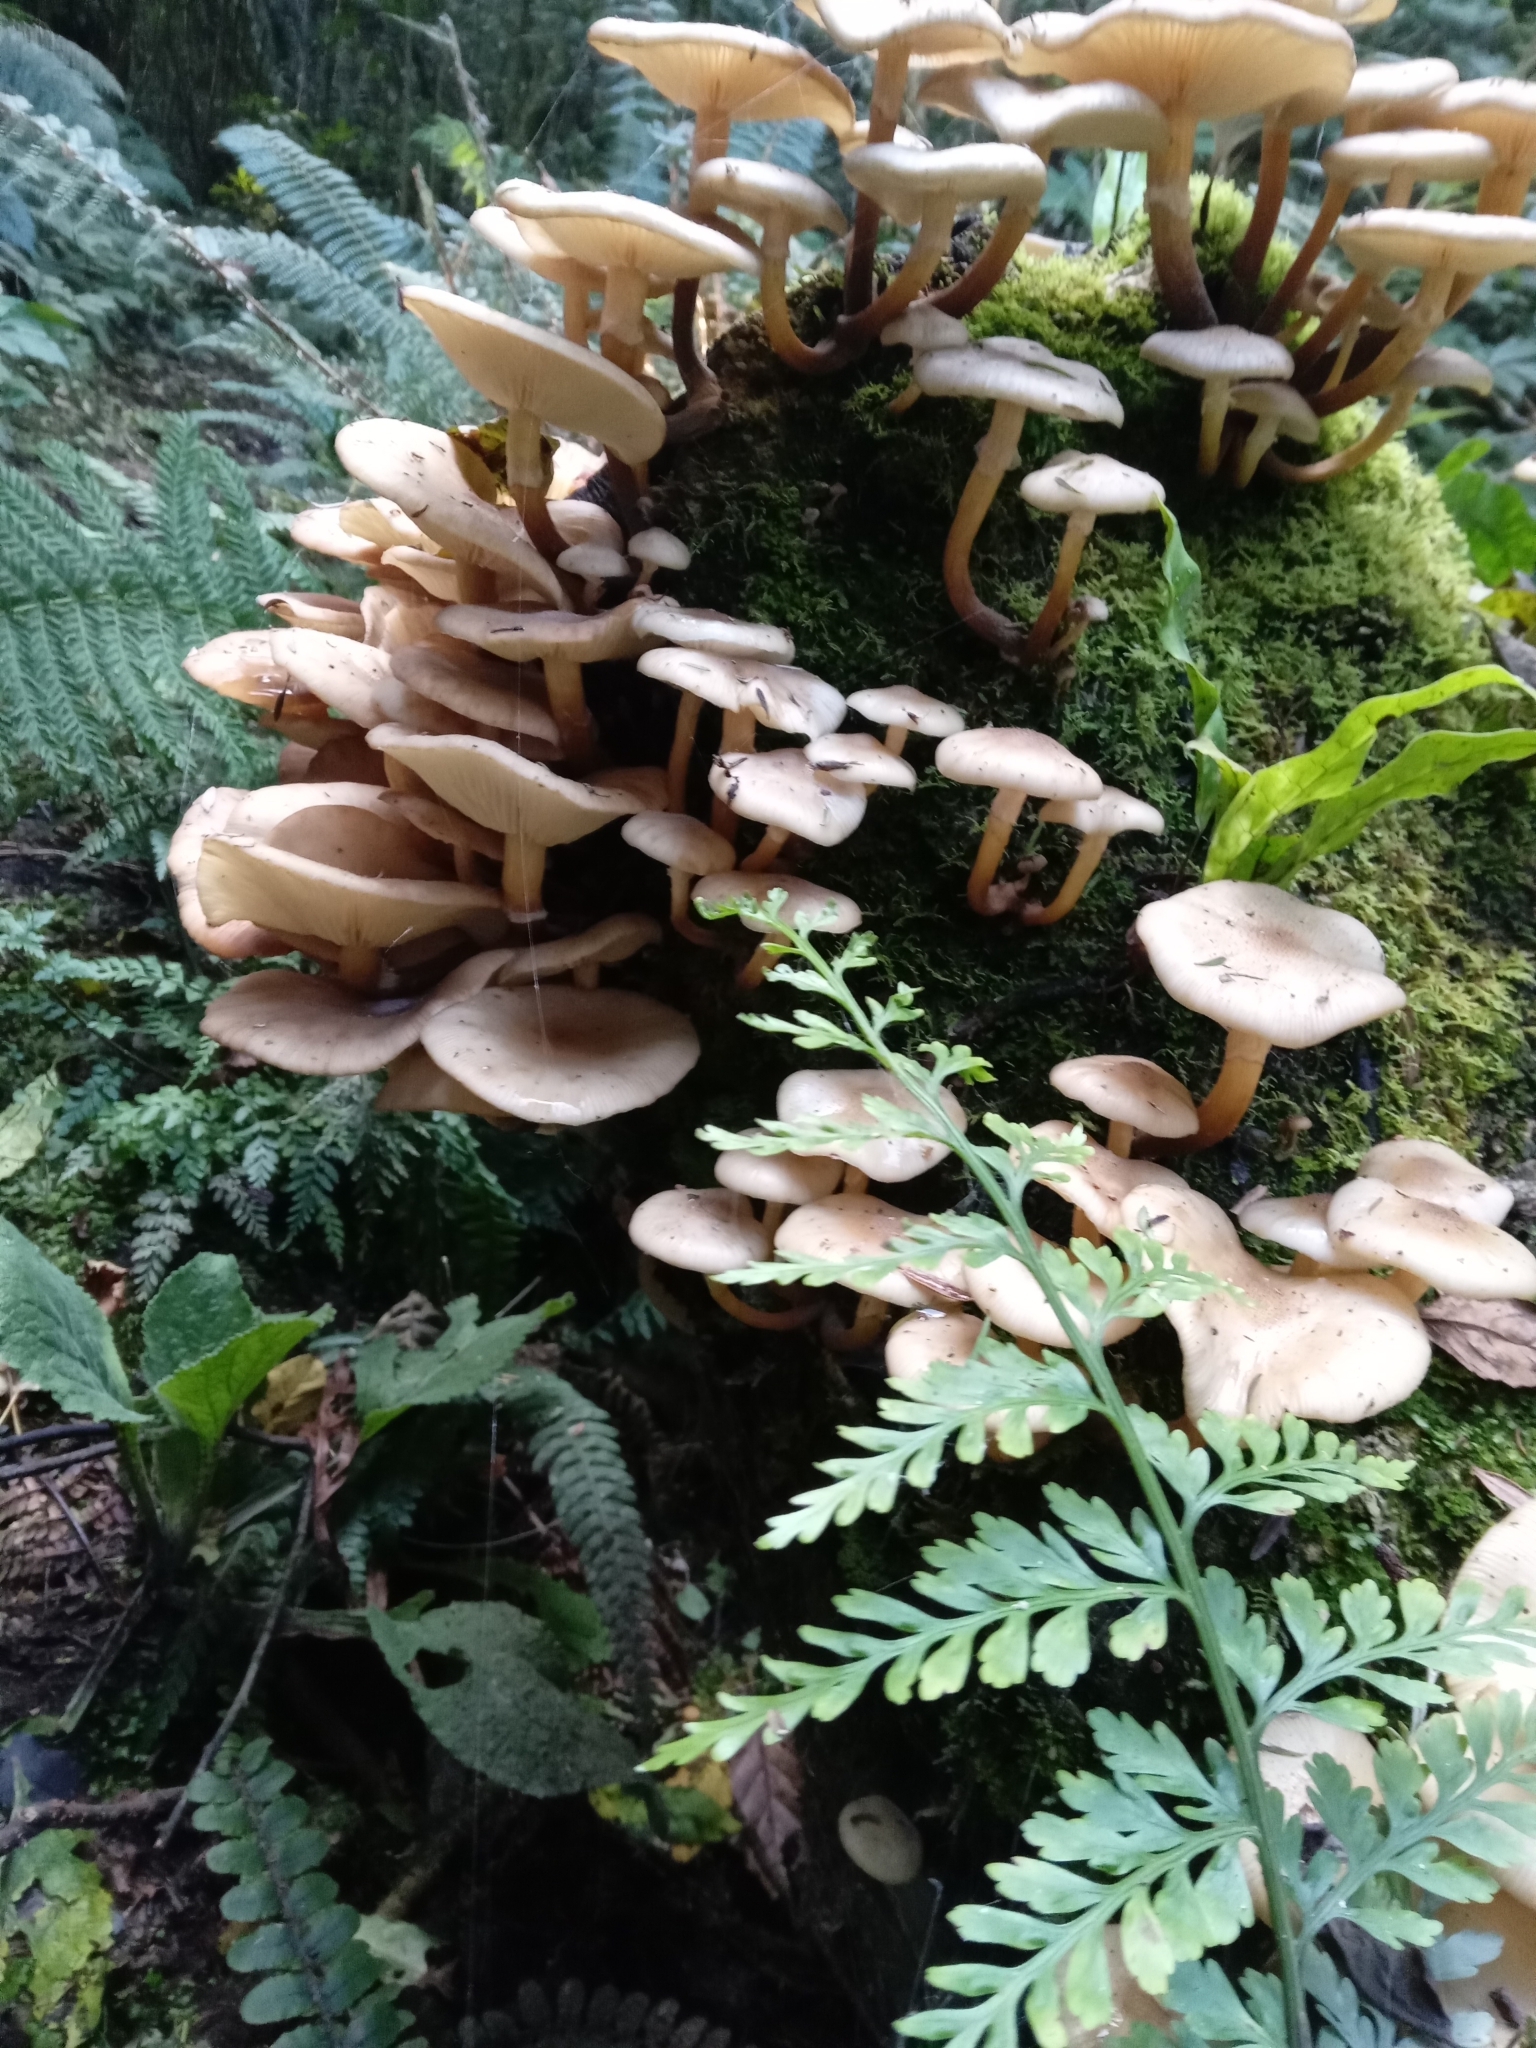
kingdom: Fungi
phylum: Basidiomycota
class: Agaricomycetes
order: Agaricales
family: Physalacriaceae
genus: Armillaria
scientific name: Armillaria novae-zelandiae
